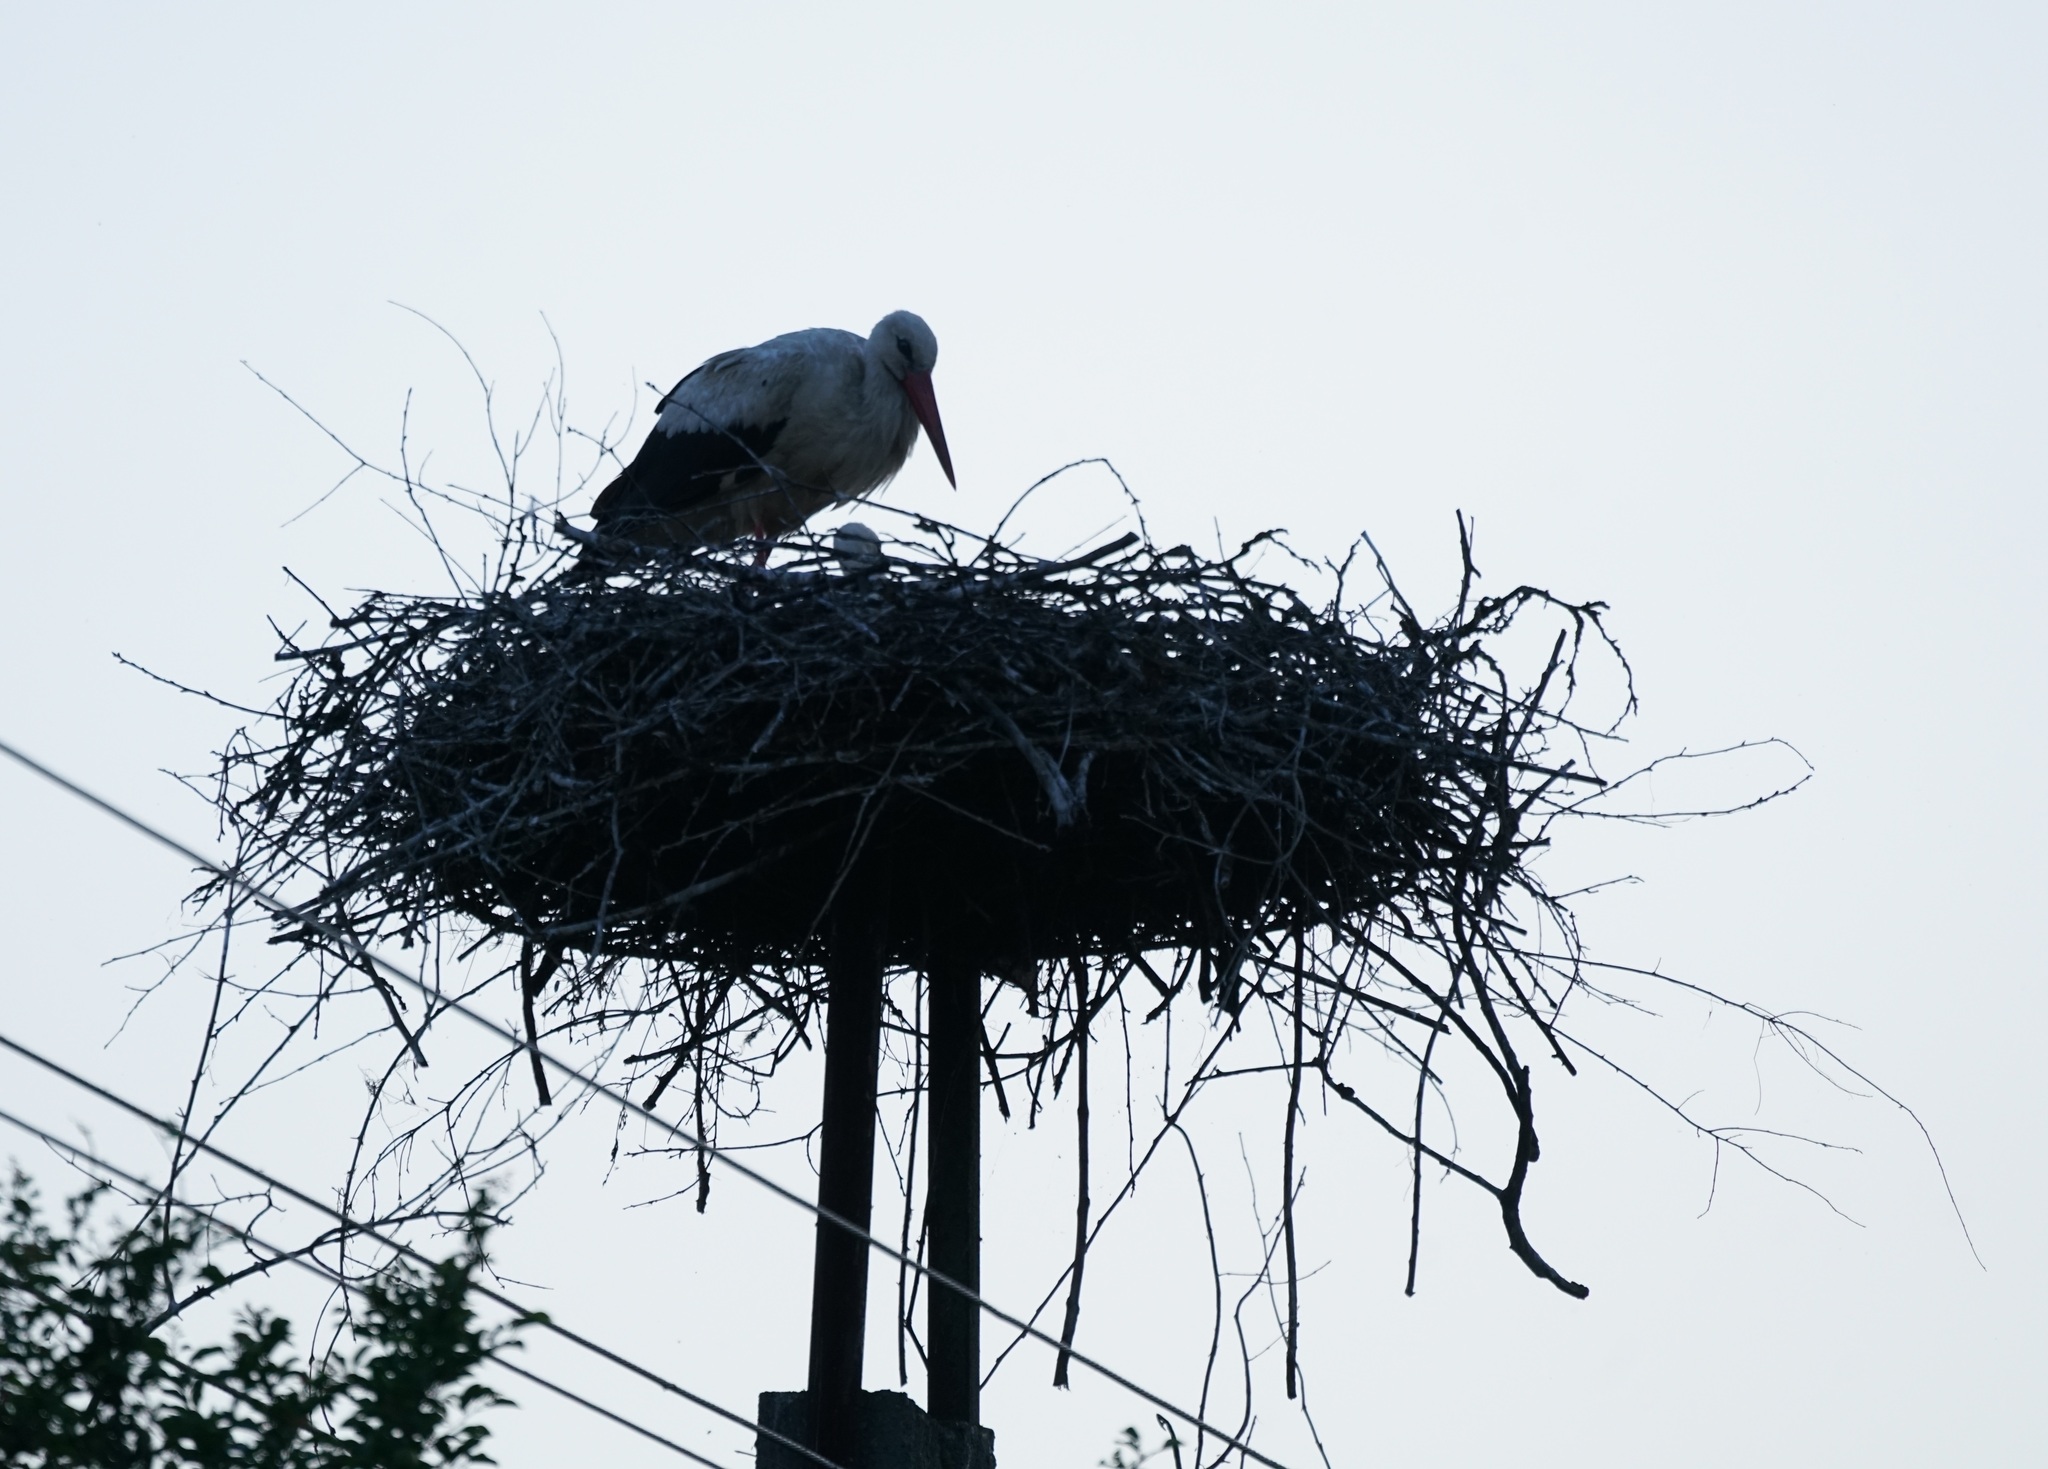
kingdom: Animalia
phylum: Chordata
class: Aves
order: Ciconiiformes
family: Ciconiidae
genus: Ciconia
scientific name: Ciconia ciconia
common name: White stork
